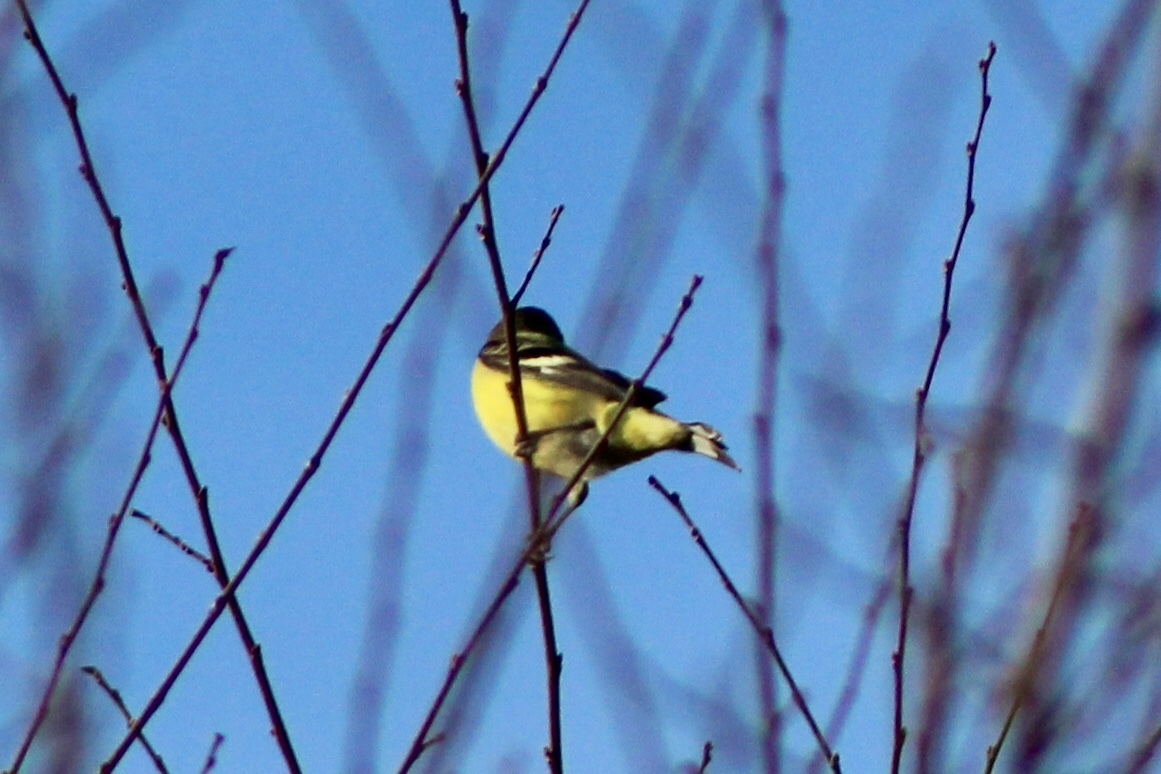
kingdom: Animalia
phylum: Chordata
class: Aves
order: Passeriformes
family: Fringillidae
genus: Spinus
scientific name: Spinus psaltria
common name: Lesser goldfinch
